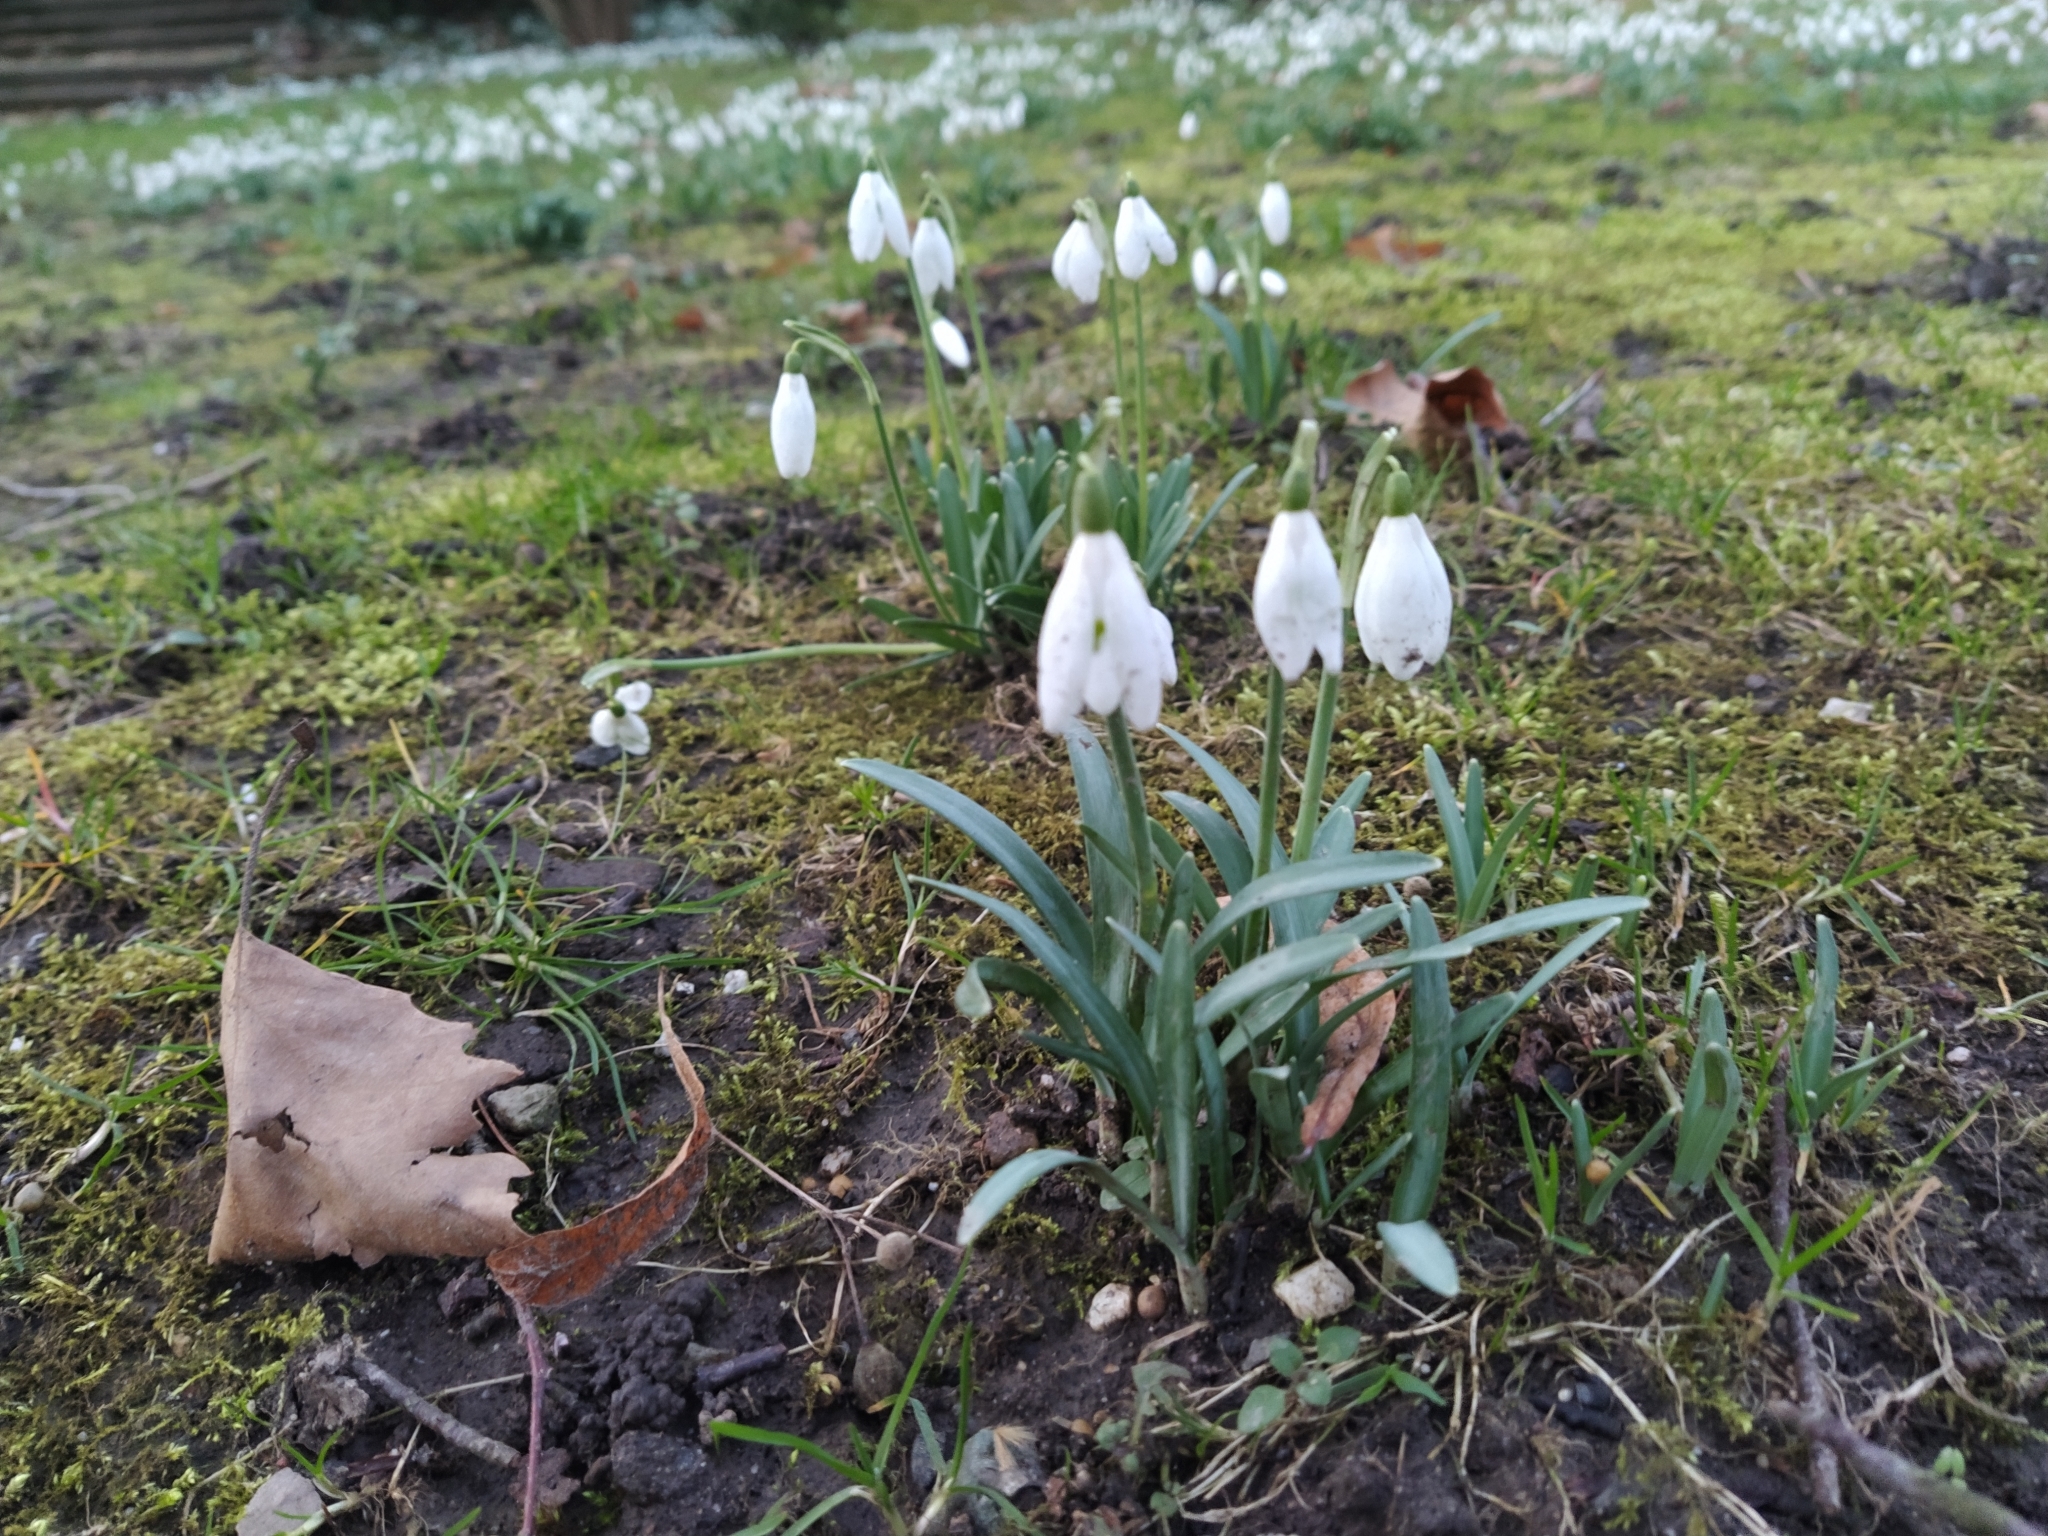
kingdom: Plantae
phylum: Tracheophyta
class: Liliopsida
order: Asparagales
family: Amaryllidaceae
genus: Galanthus
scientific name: Galanthus nivalis
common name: Snowdrop
